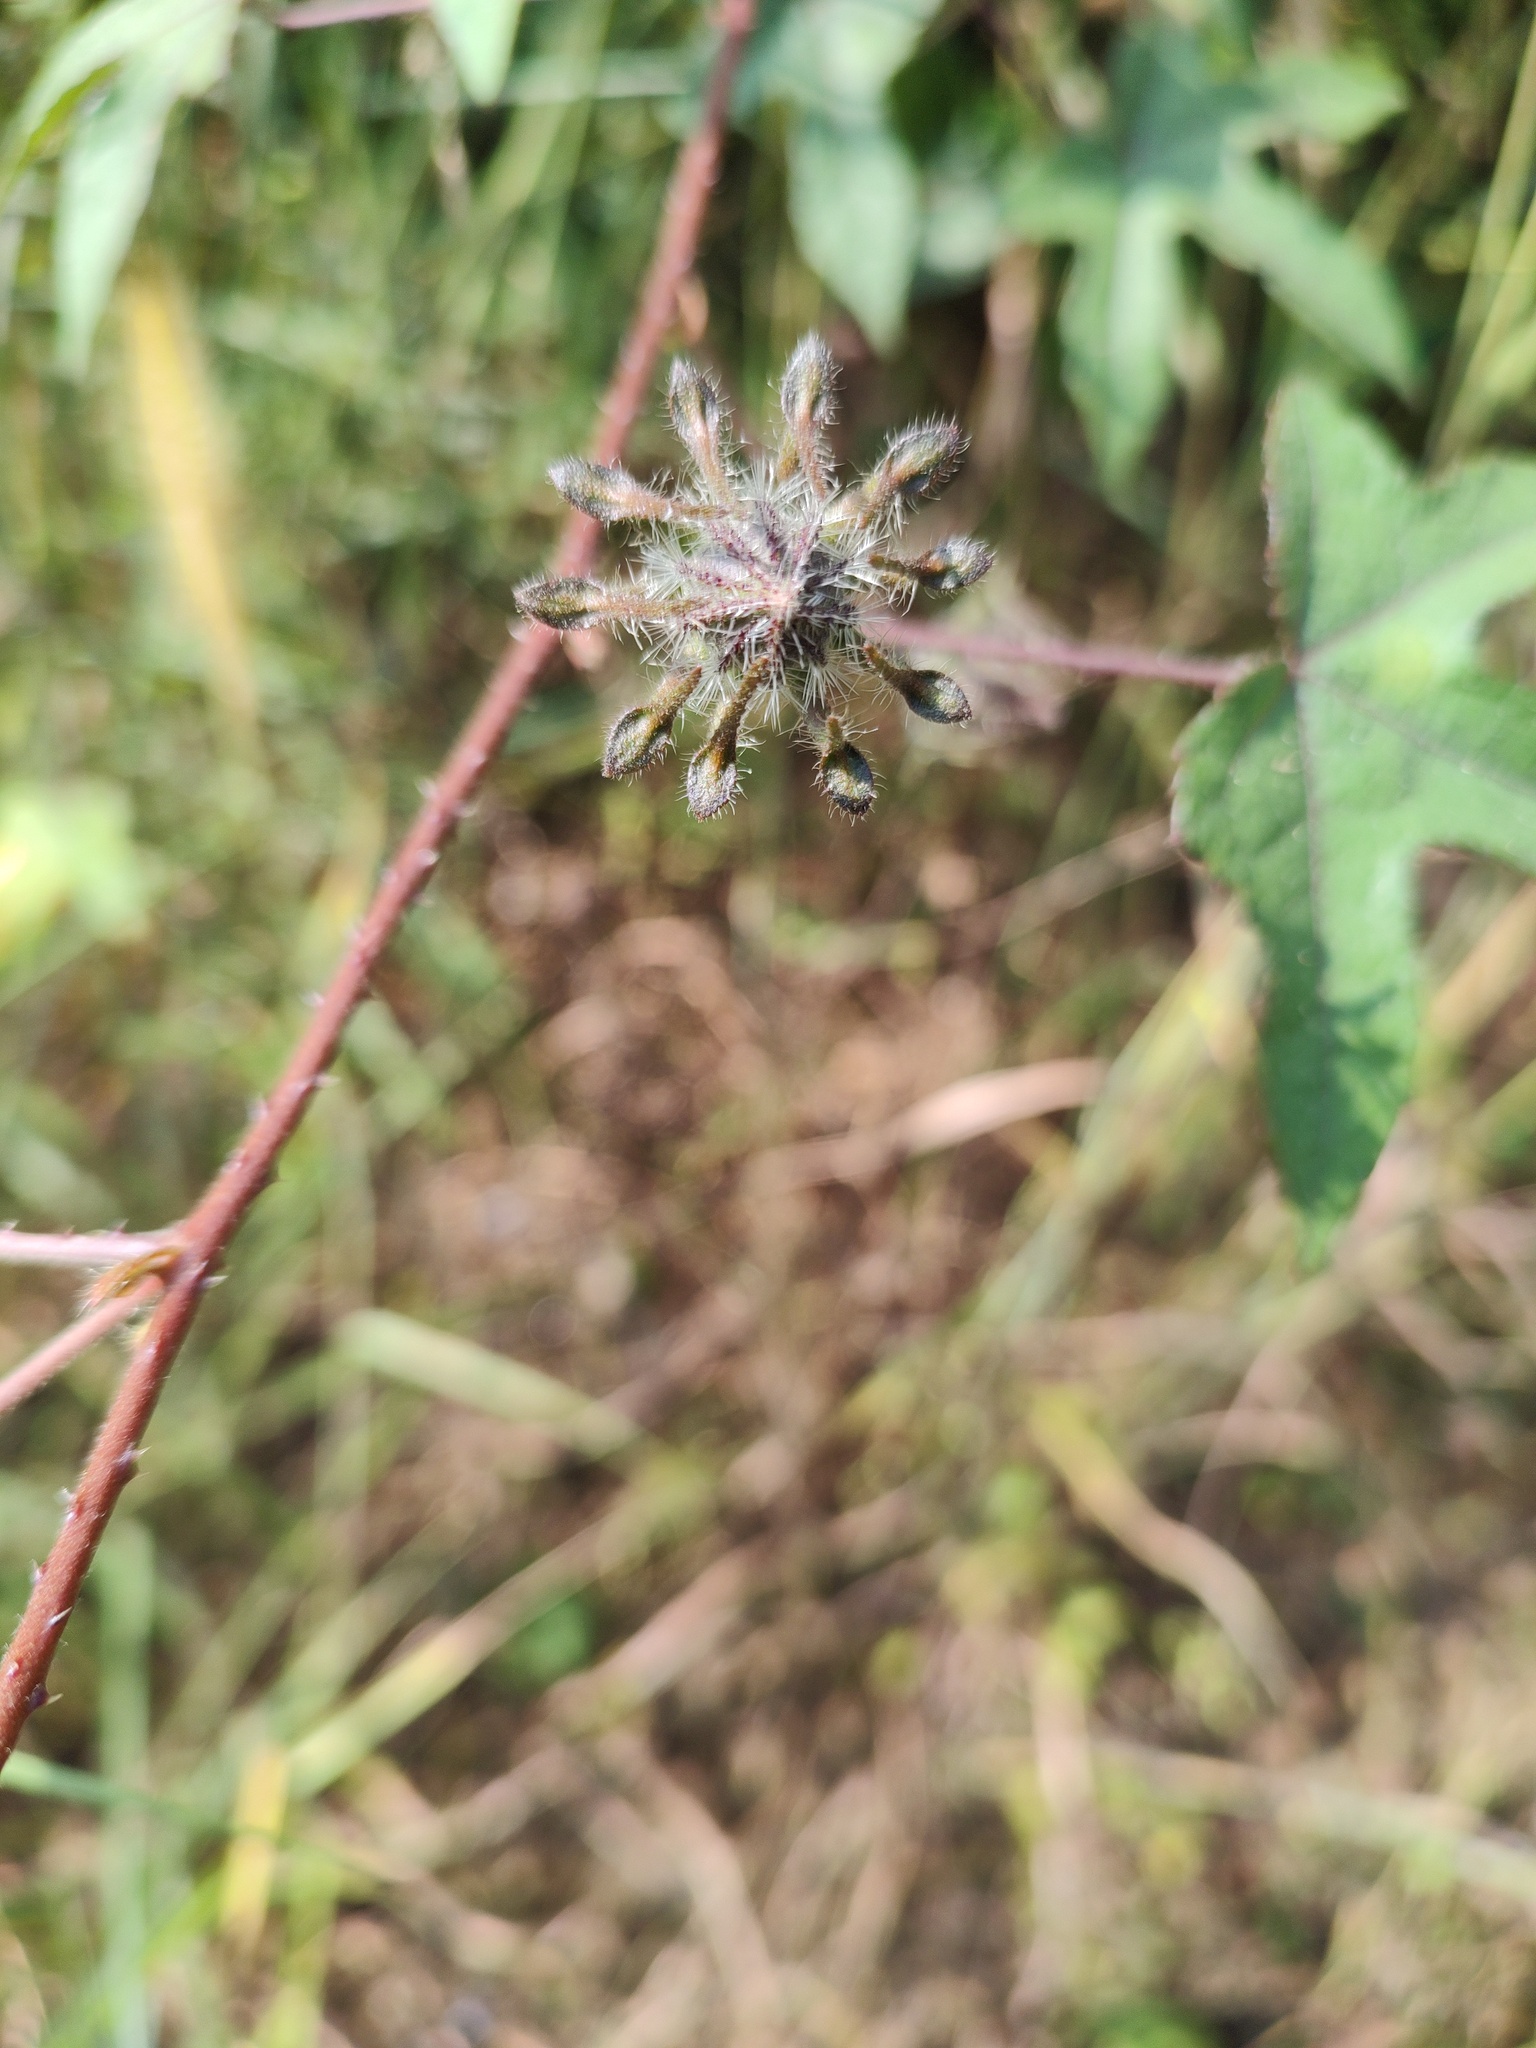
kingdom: Plantae
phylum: Tracheophyta
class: Magnoliopsida
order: Malvales
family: Malvaceae
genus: Hibiscus
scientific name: Hibiscus surattensis
